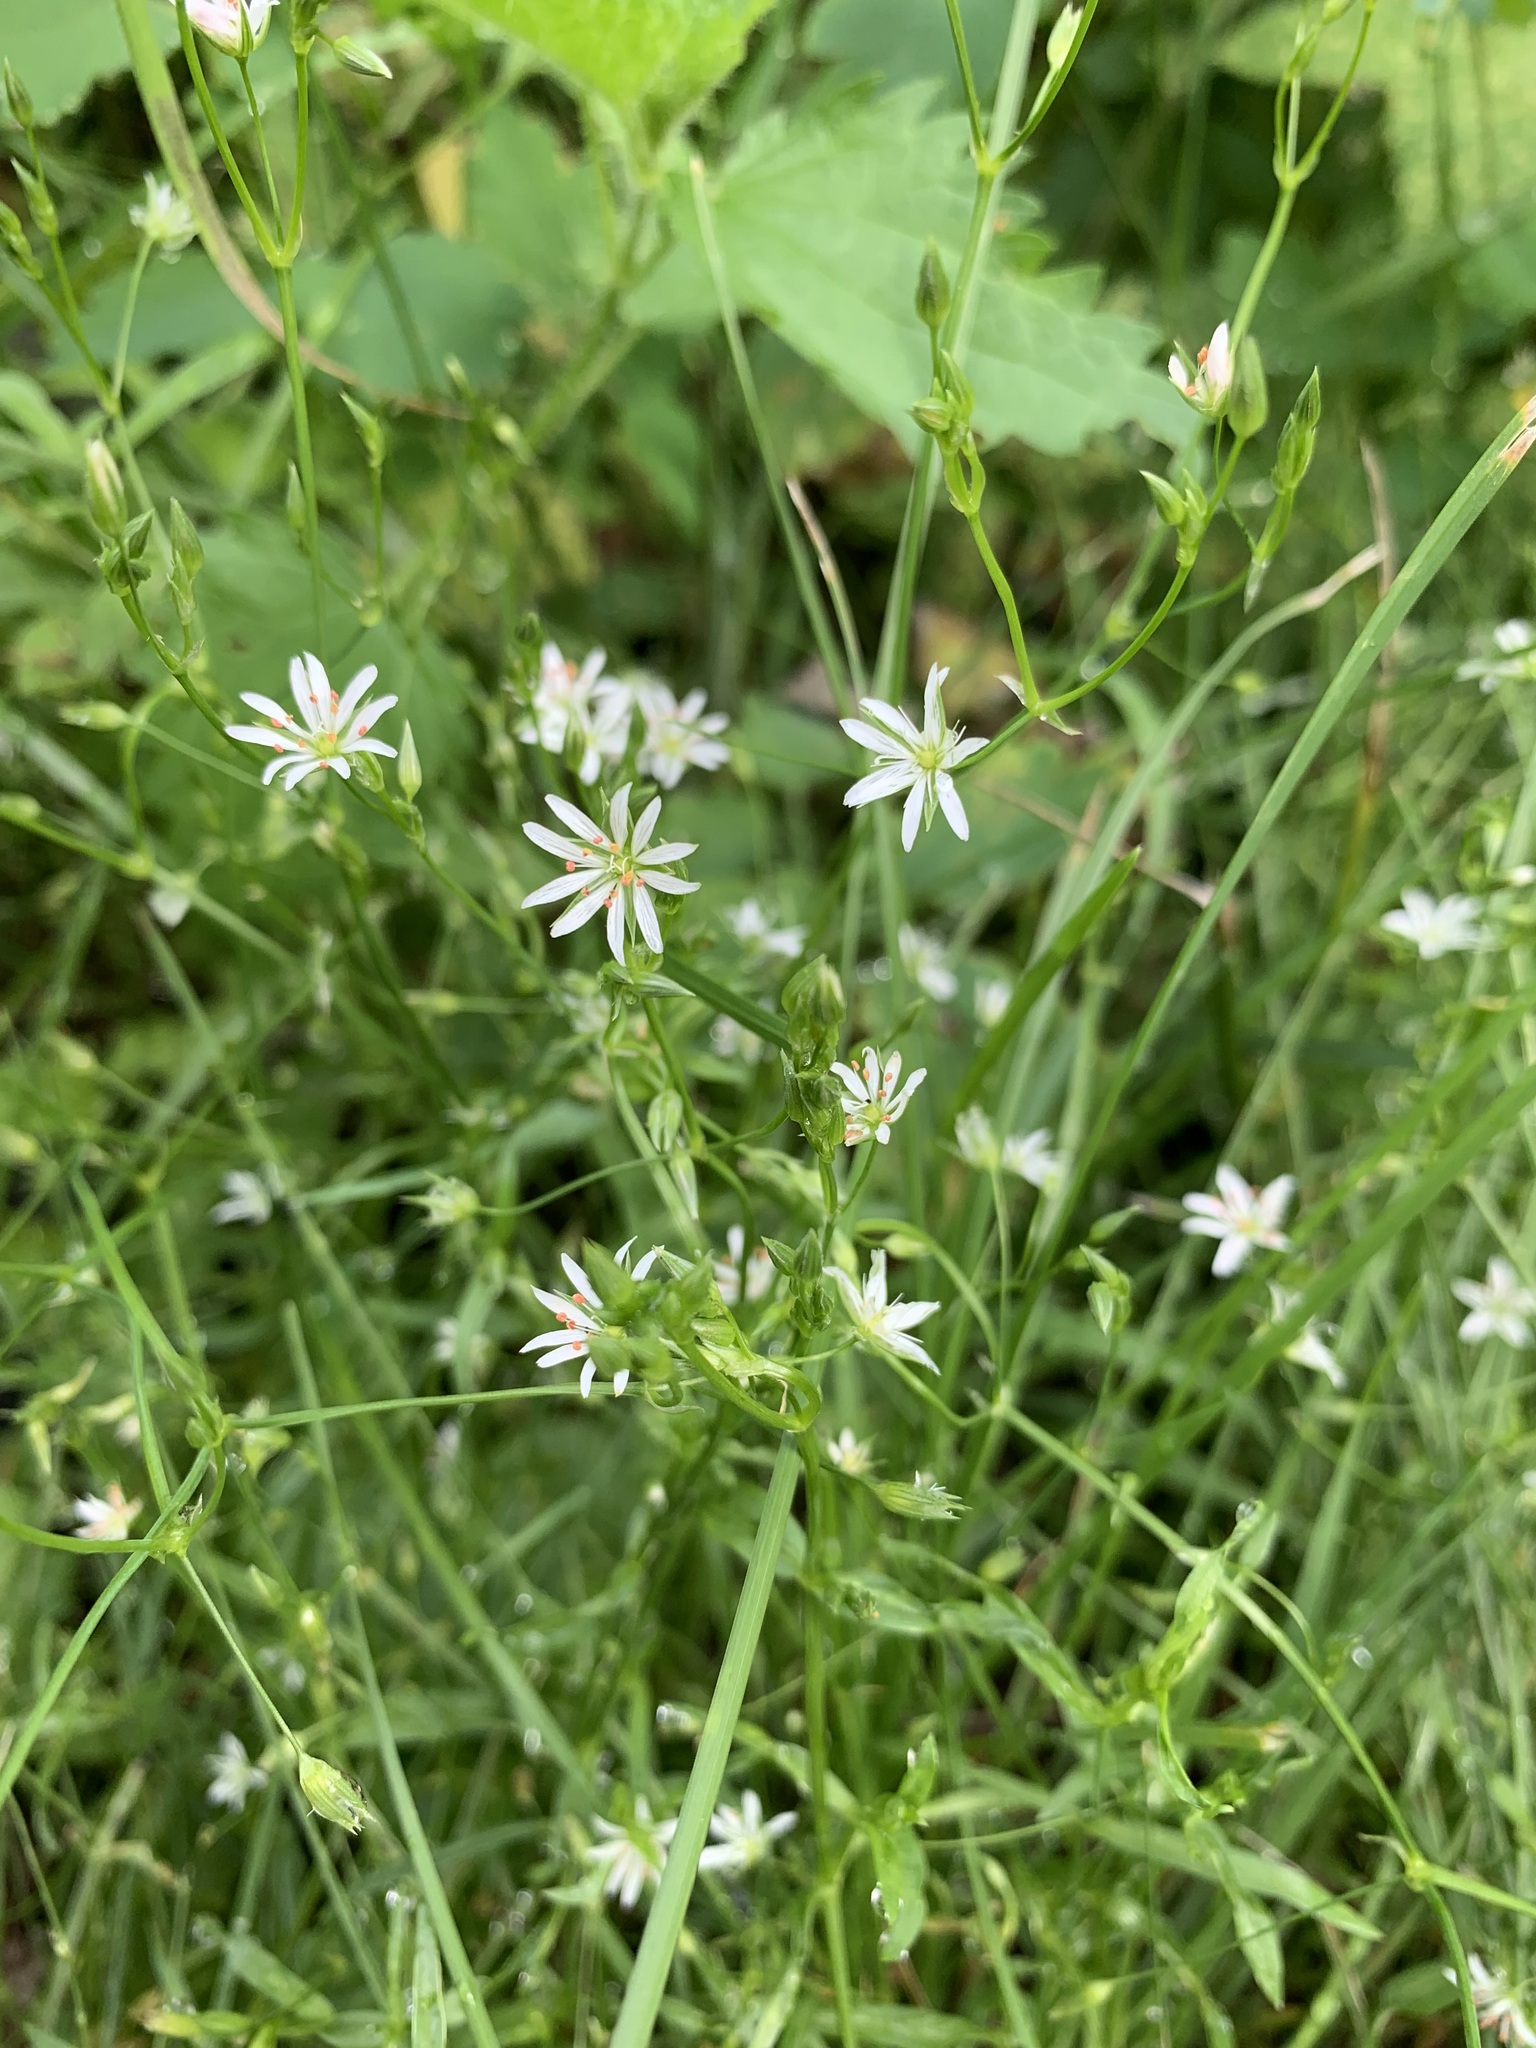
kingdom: Plantae
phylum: Tracheophyta
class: Magnoliopsida
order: Caryophyllales
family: Caryophyllaceae
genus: Stellaria
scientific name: Stellaria graminea
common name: Grass-like starwort
